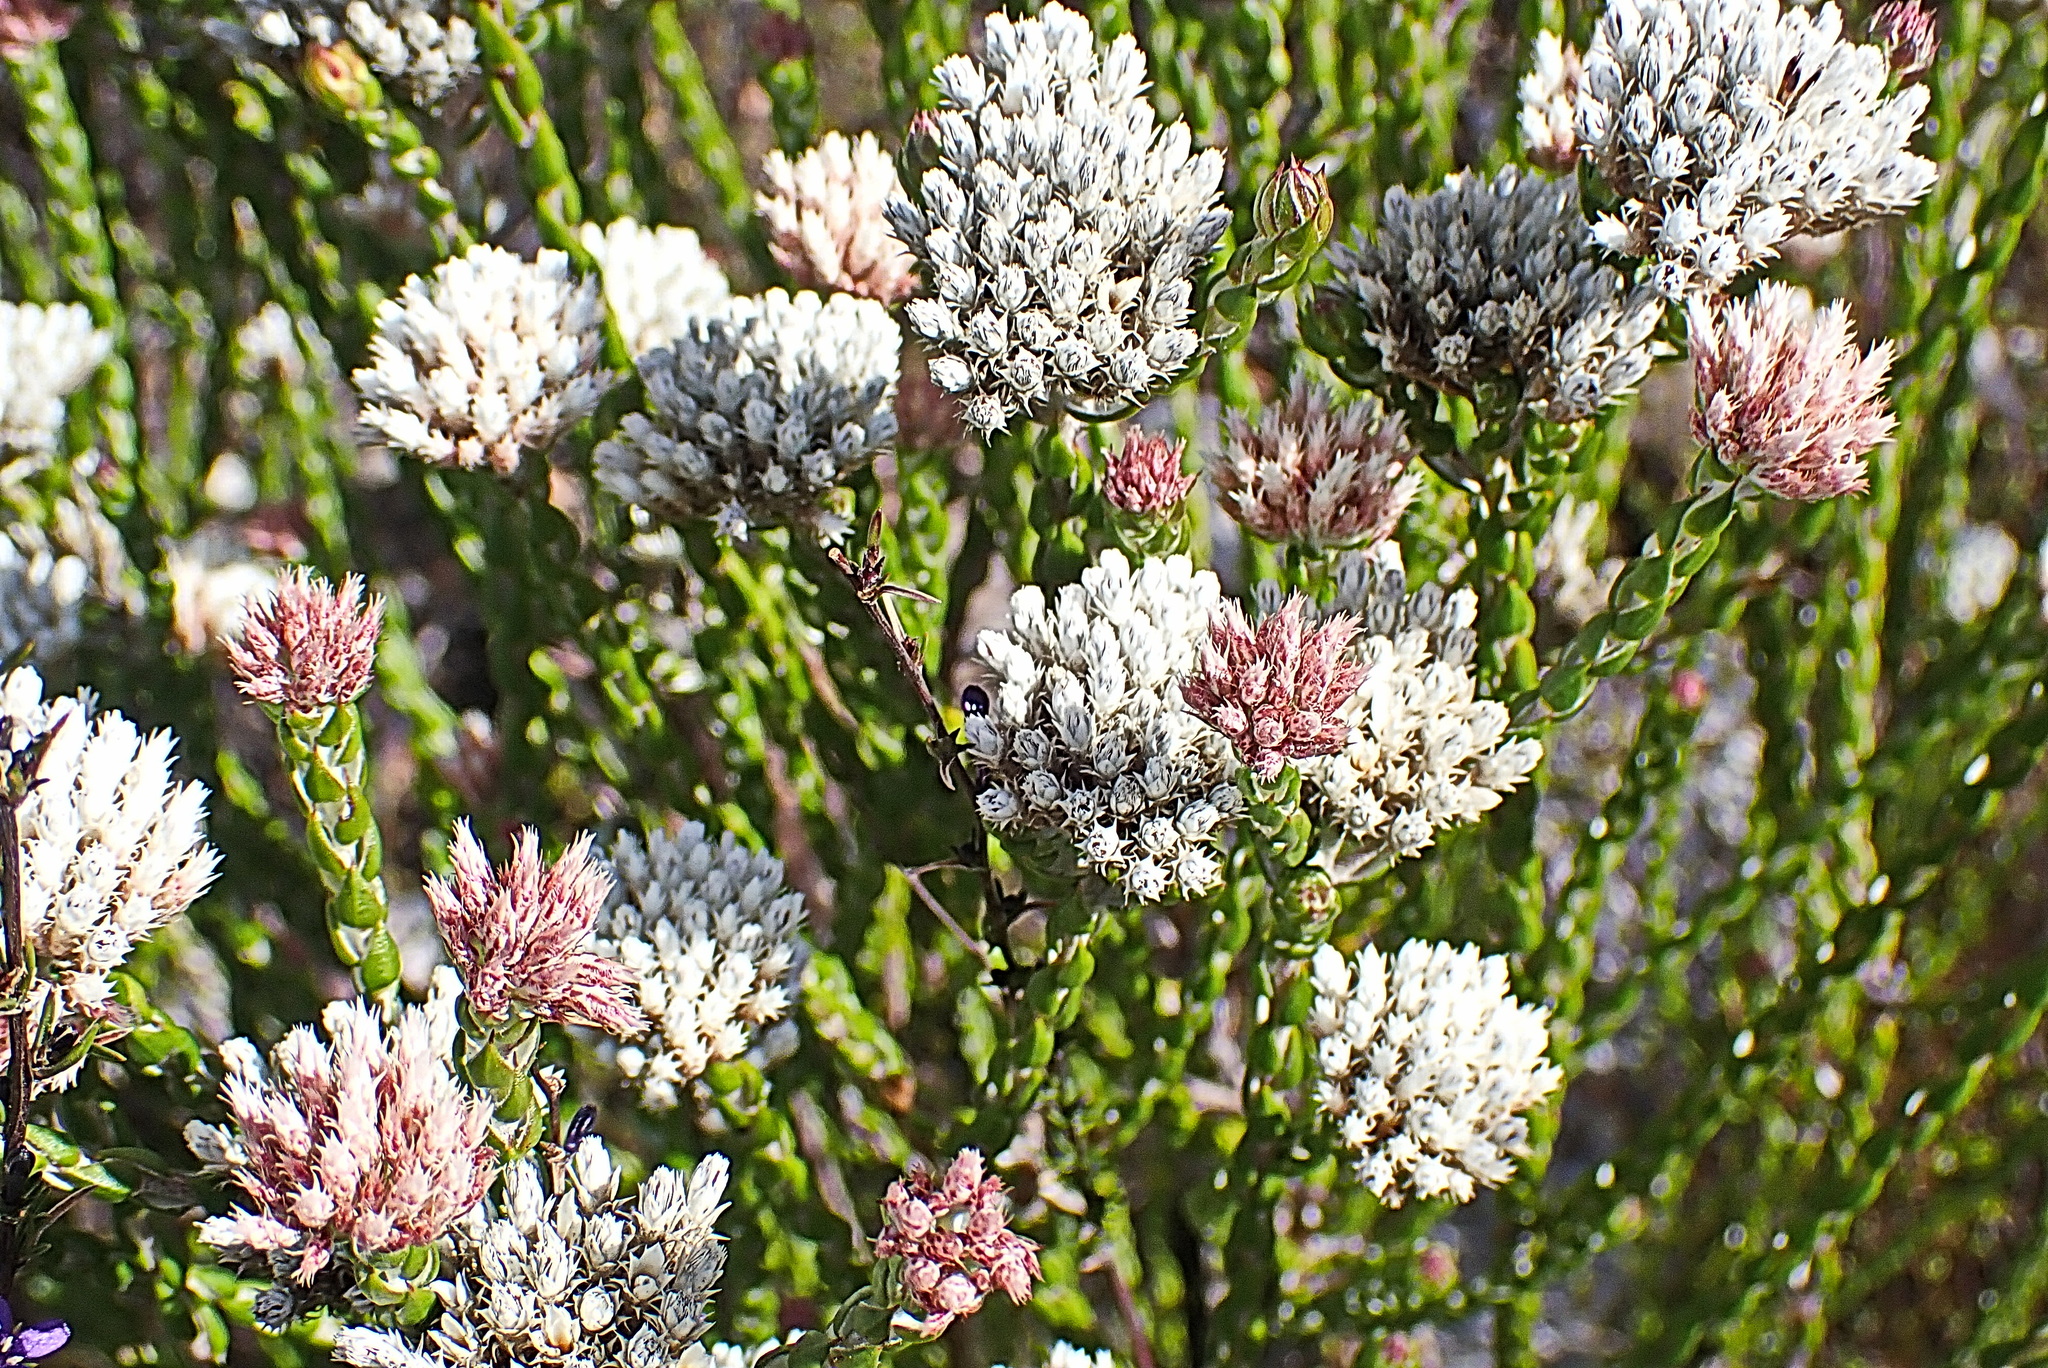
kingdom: Plantae
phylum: Tracheophyta
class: Magnoliopsida
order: Asterales
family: Asteraceae
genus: Metalasia
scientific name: Metalasia pulcherrima
